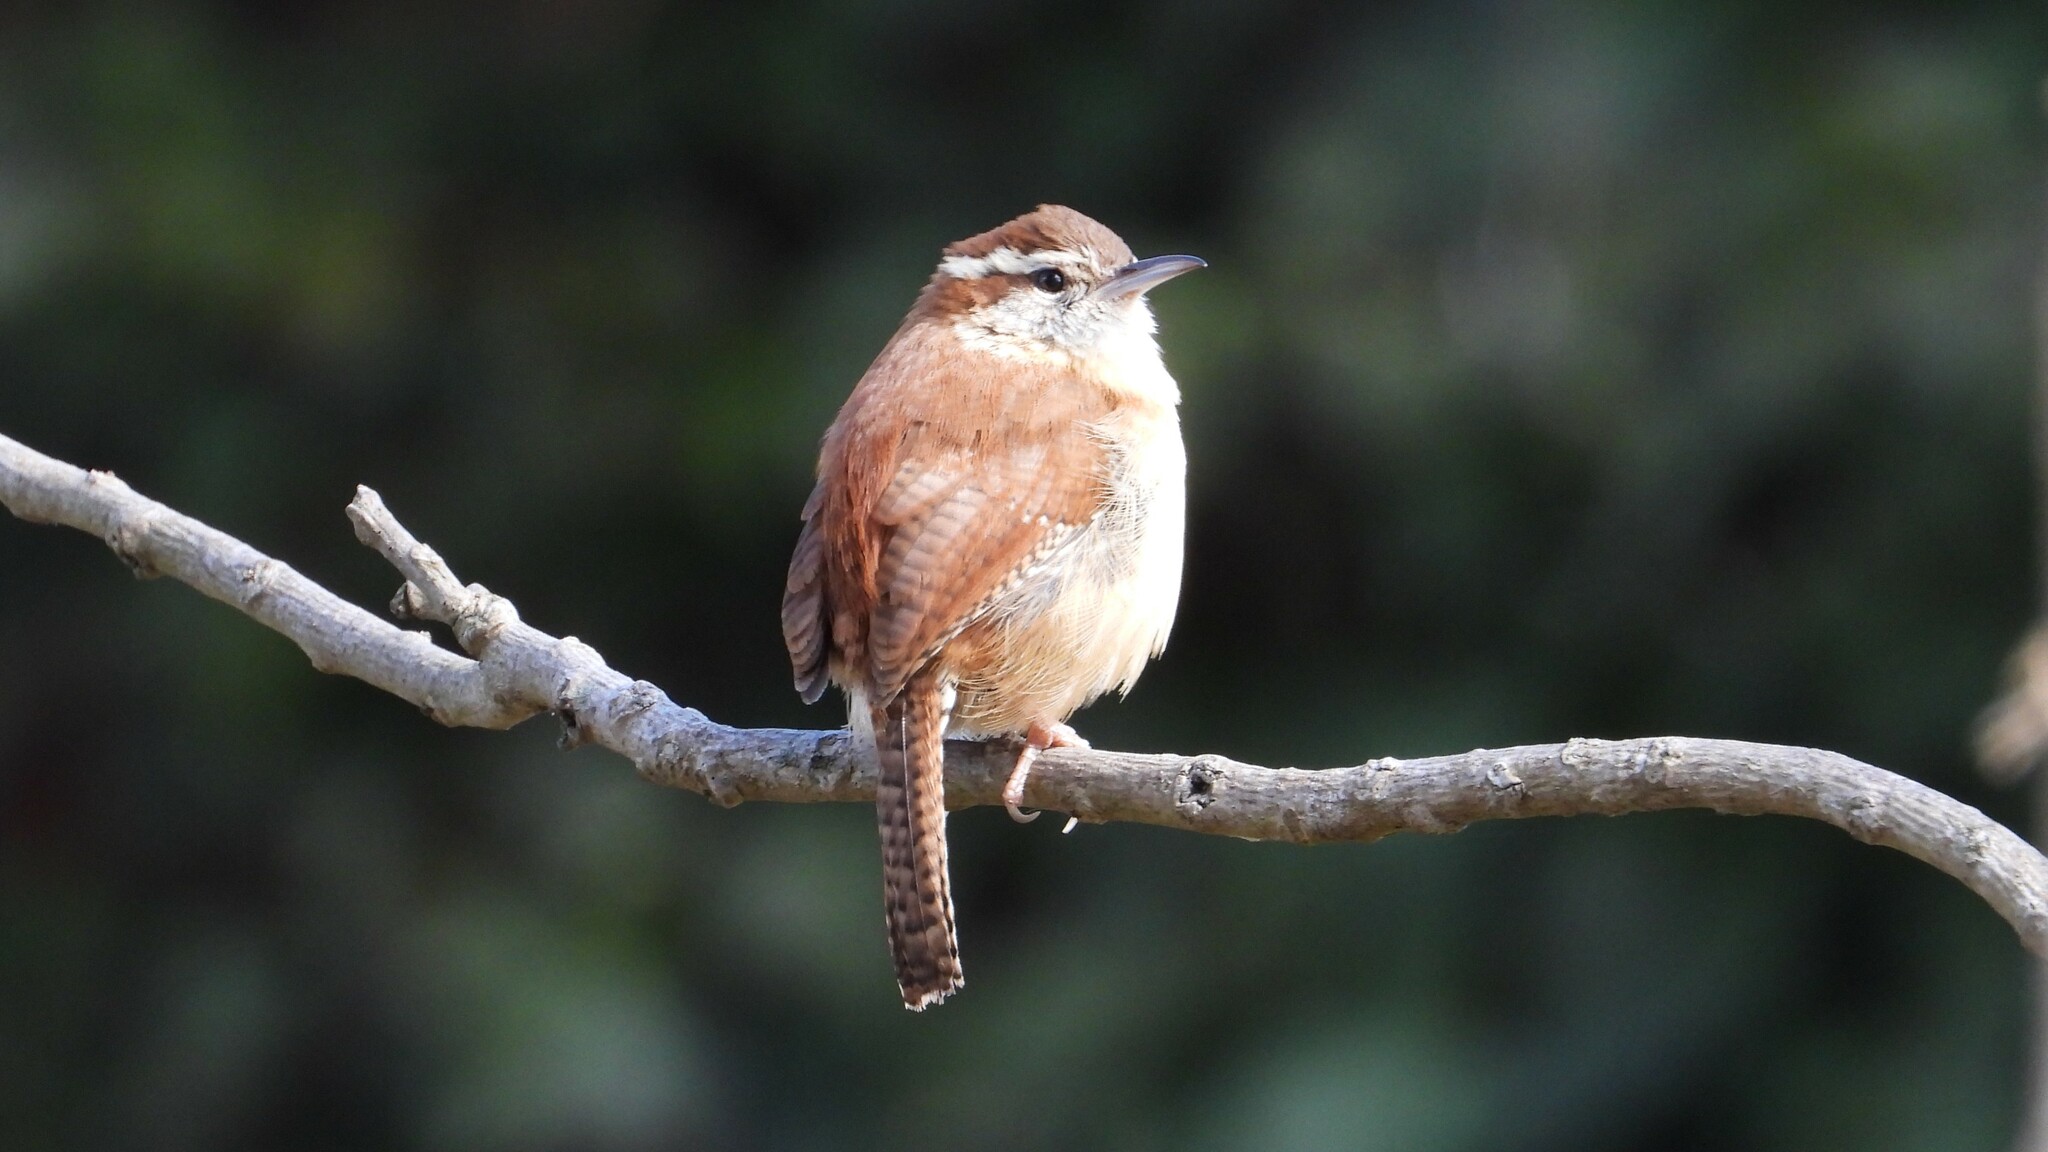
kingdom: Animalia
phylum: Chordata
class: Aves
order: Passeriformes
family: Troglodytidae
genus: Thryothorus
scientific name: Thryothorus ludovicianus
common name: Carolina wren
